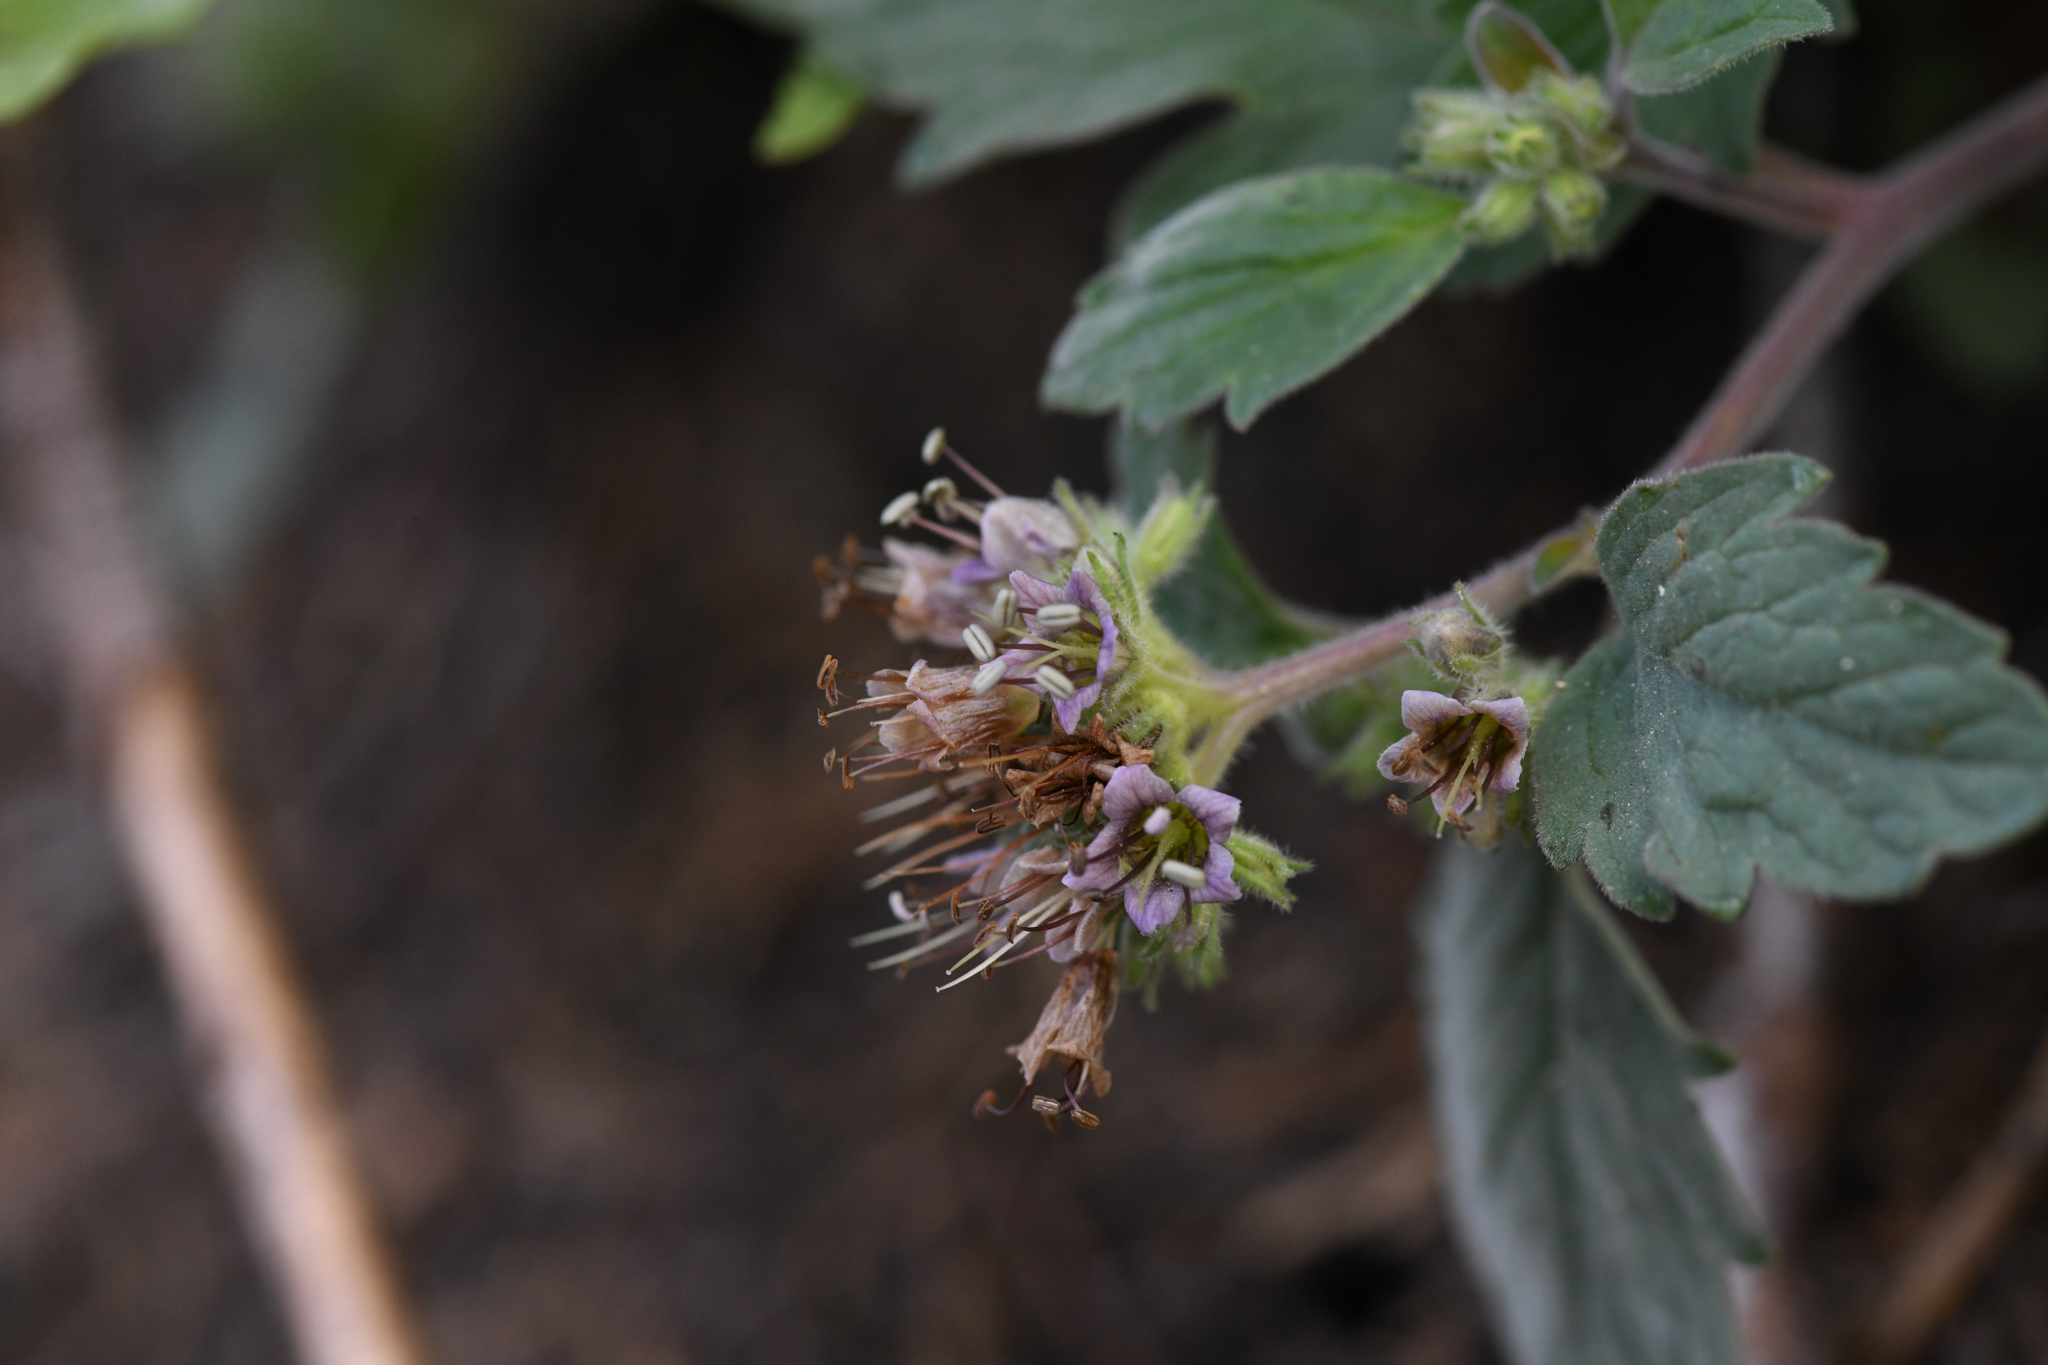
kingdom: Plantae
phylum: Tracheophyta
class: Magnoliopsida
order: Boraginales
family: Hydrophyllaceae
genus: Phacelia
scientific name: Phacelia hydrophylloides
